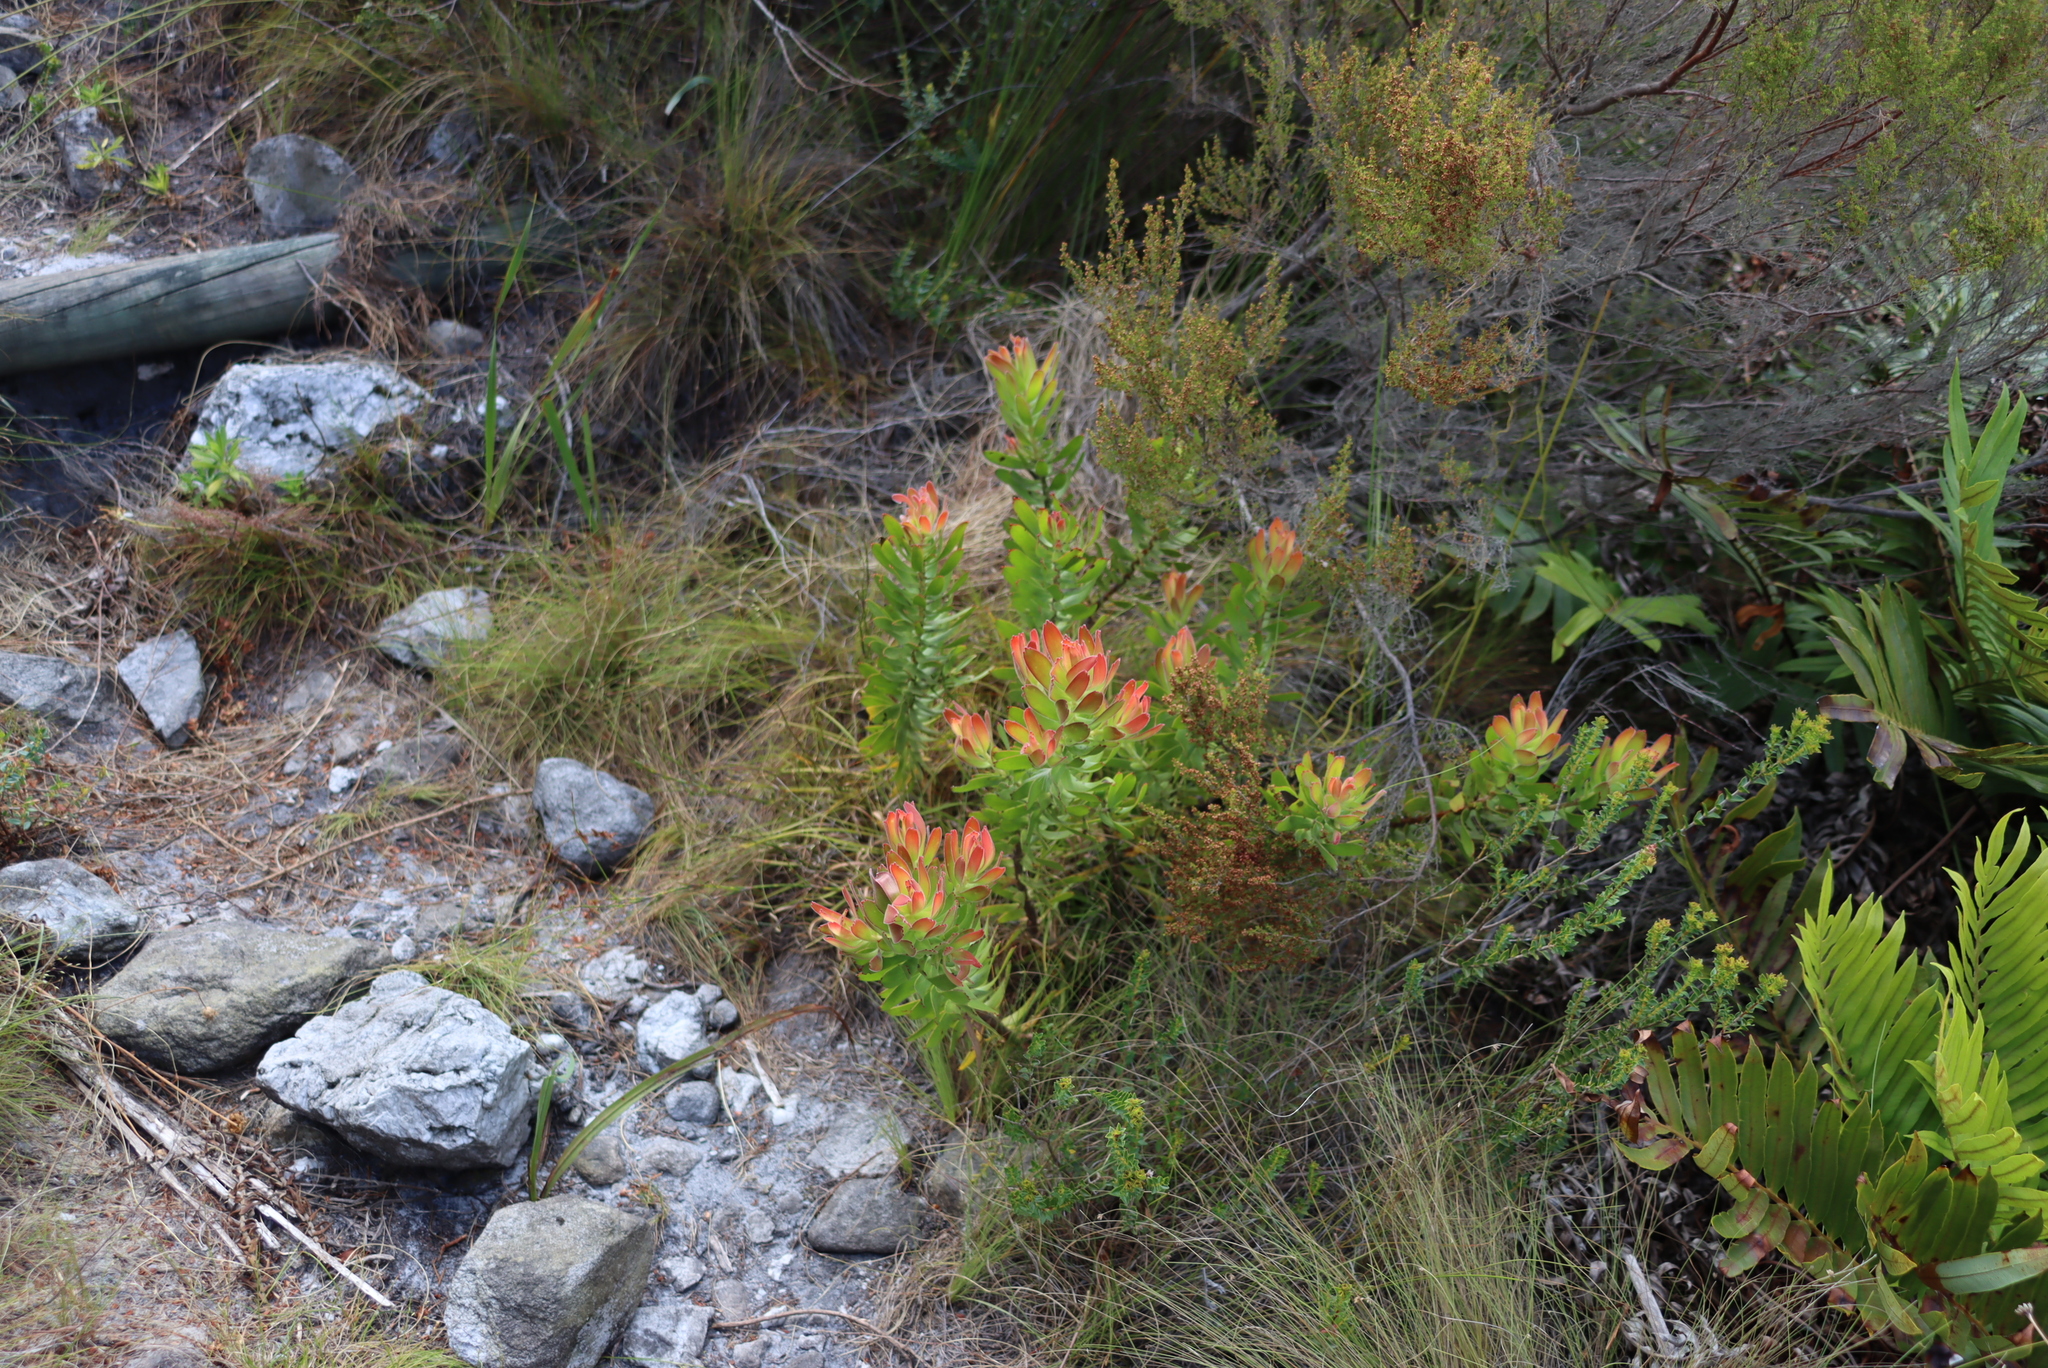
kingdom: Plantae
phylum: Tracheophyta
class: Magnoliopsida
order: Proteales
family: Proteaceae
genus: Mimetes
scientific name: Mimetes cucullatus
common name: Common pagoda
